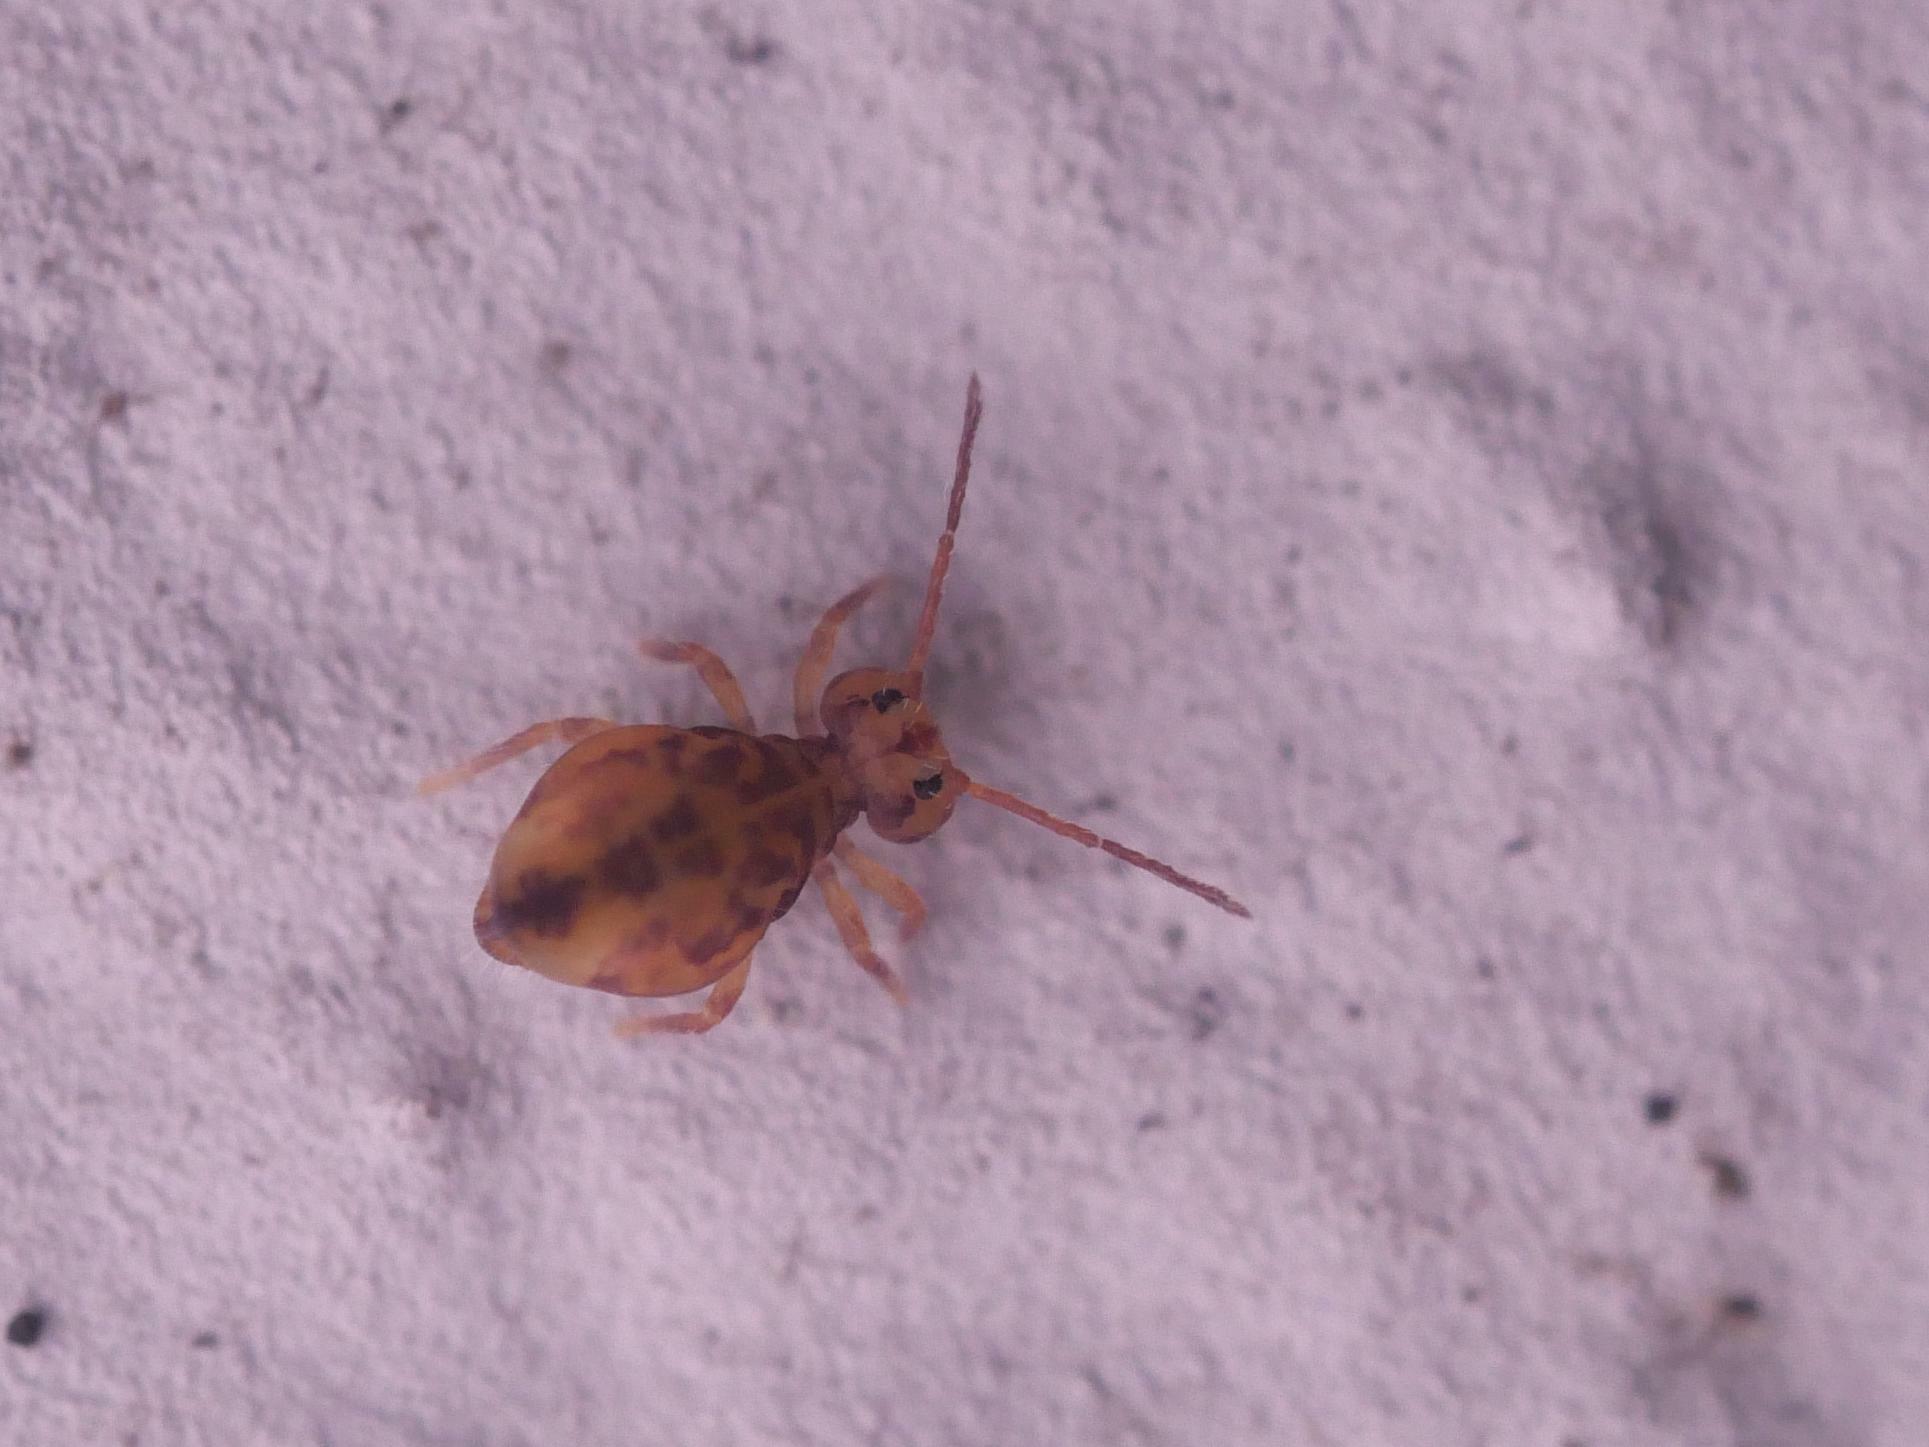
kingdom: Animalia
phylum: Arthropoda
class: Collembola
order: Symphypleona
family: Dicyrtomidae
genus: Dicyrtomina
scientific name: Dicyrtomina ornata
